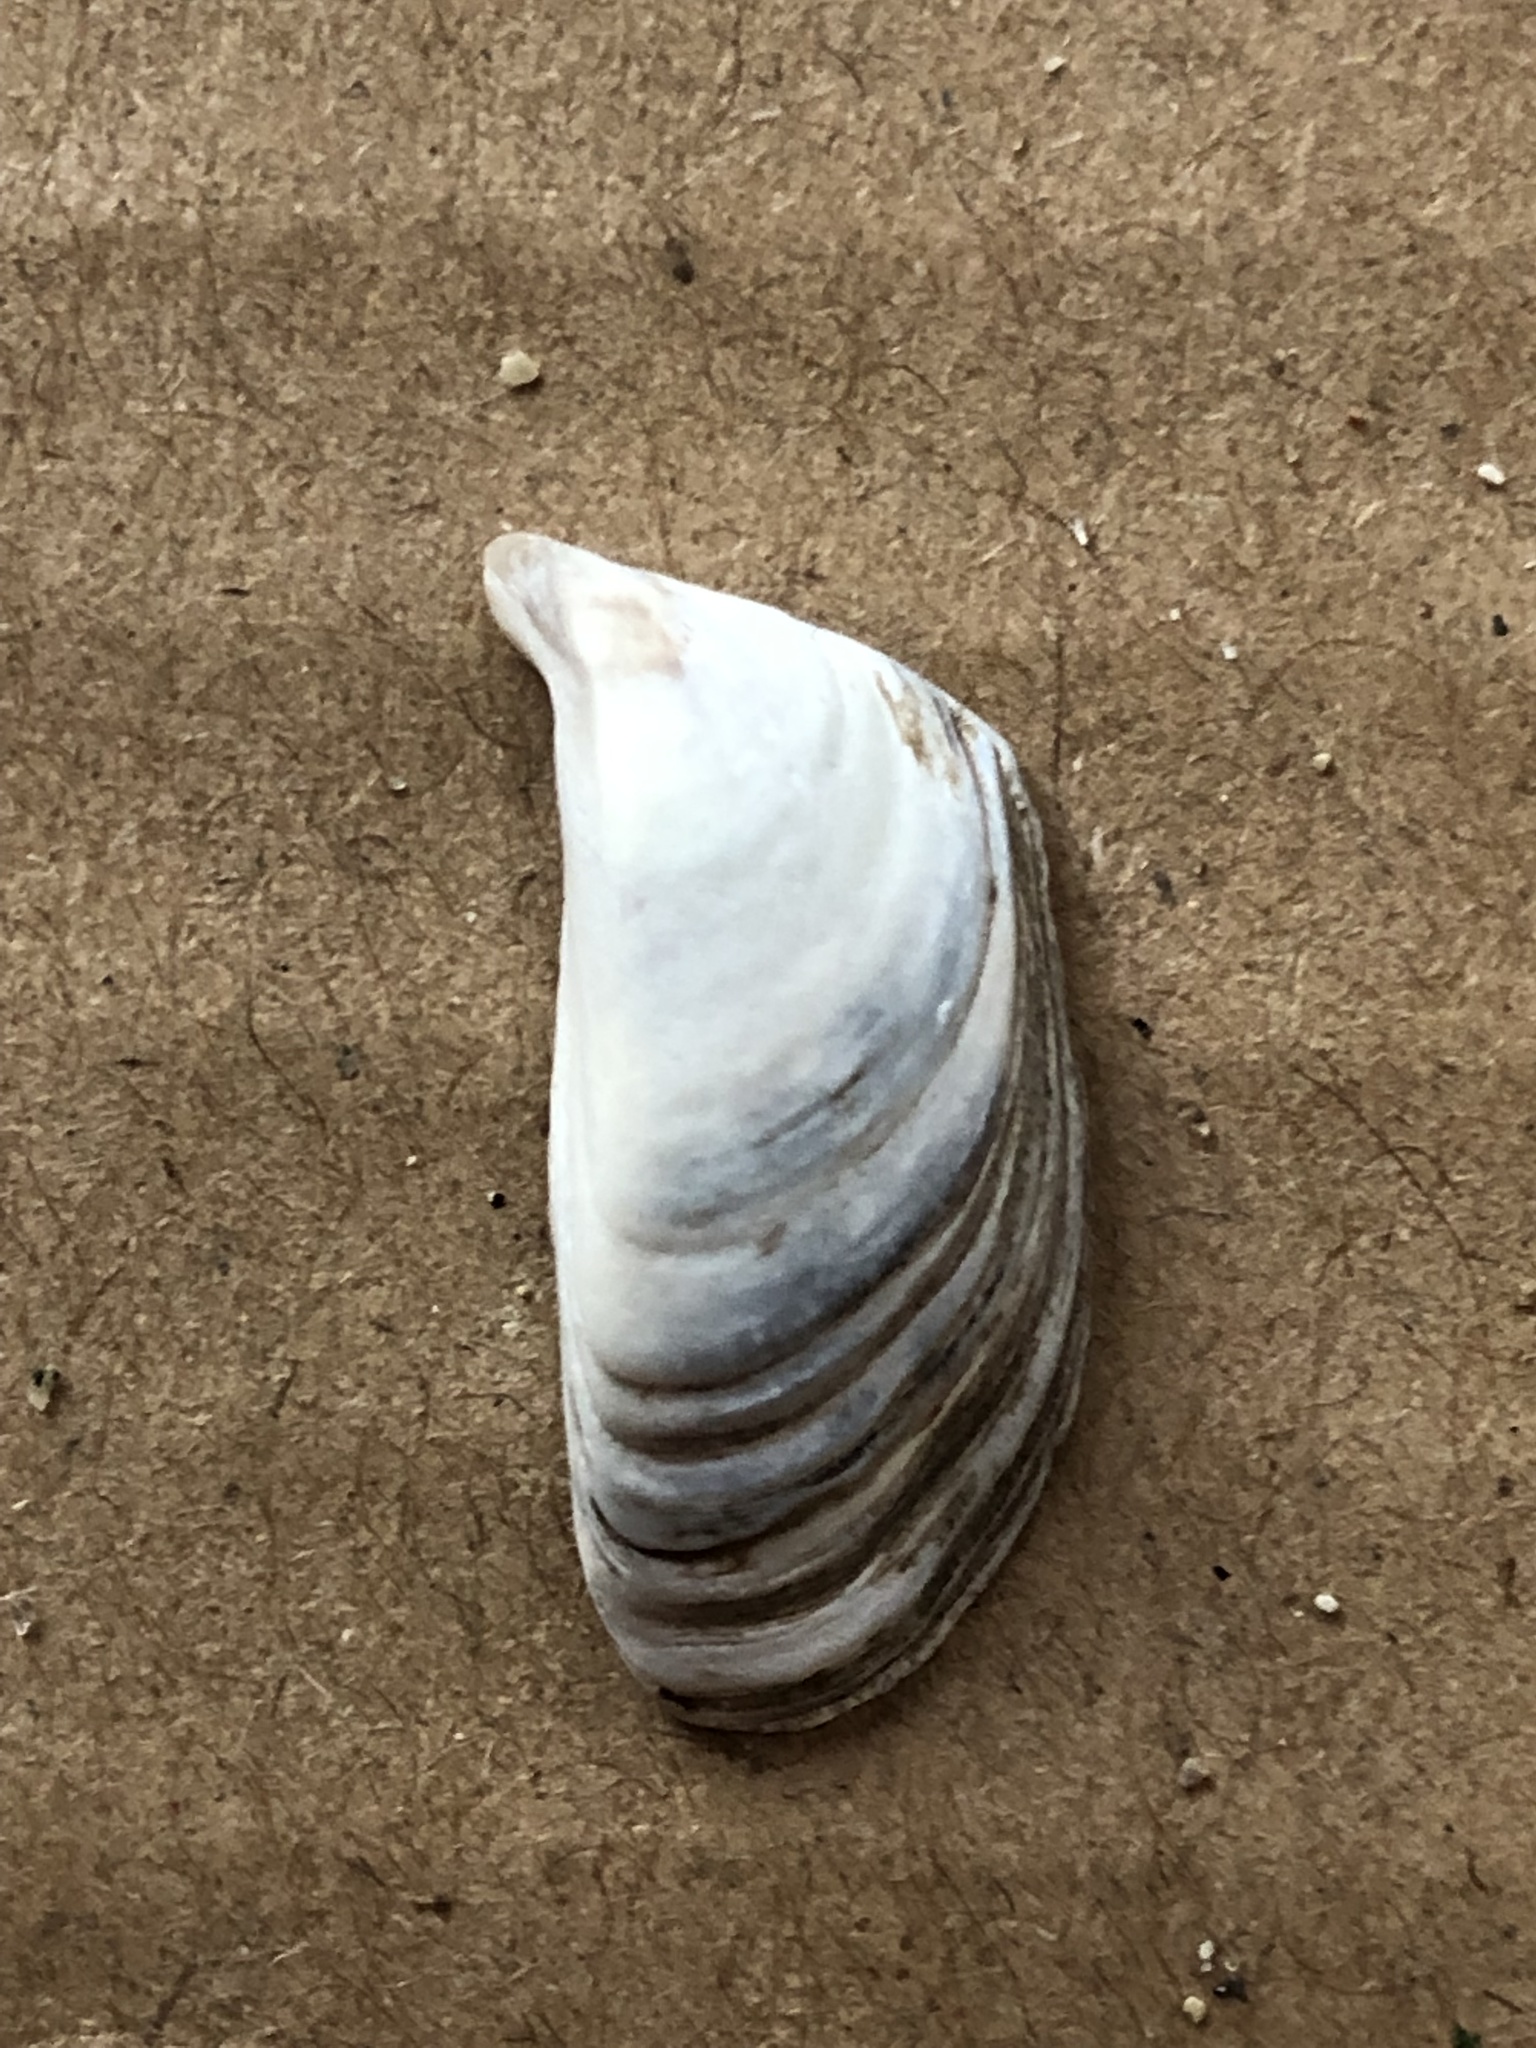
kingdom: Animalia
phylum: Mollusca
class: Bivalvia
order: Myida
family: Dreissenidae
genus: Dreissena
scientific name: Dreissena polymorpha
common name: Zebra mussel
